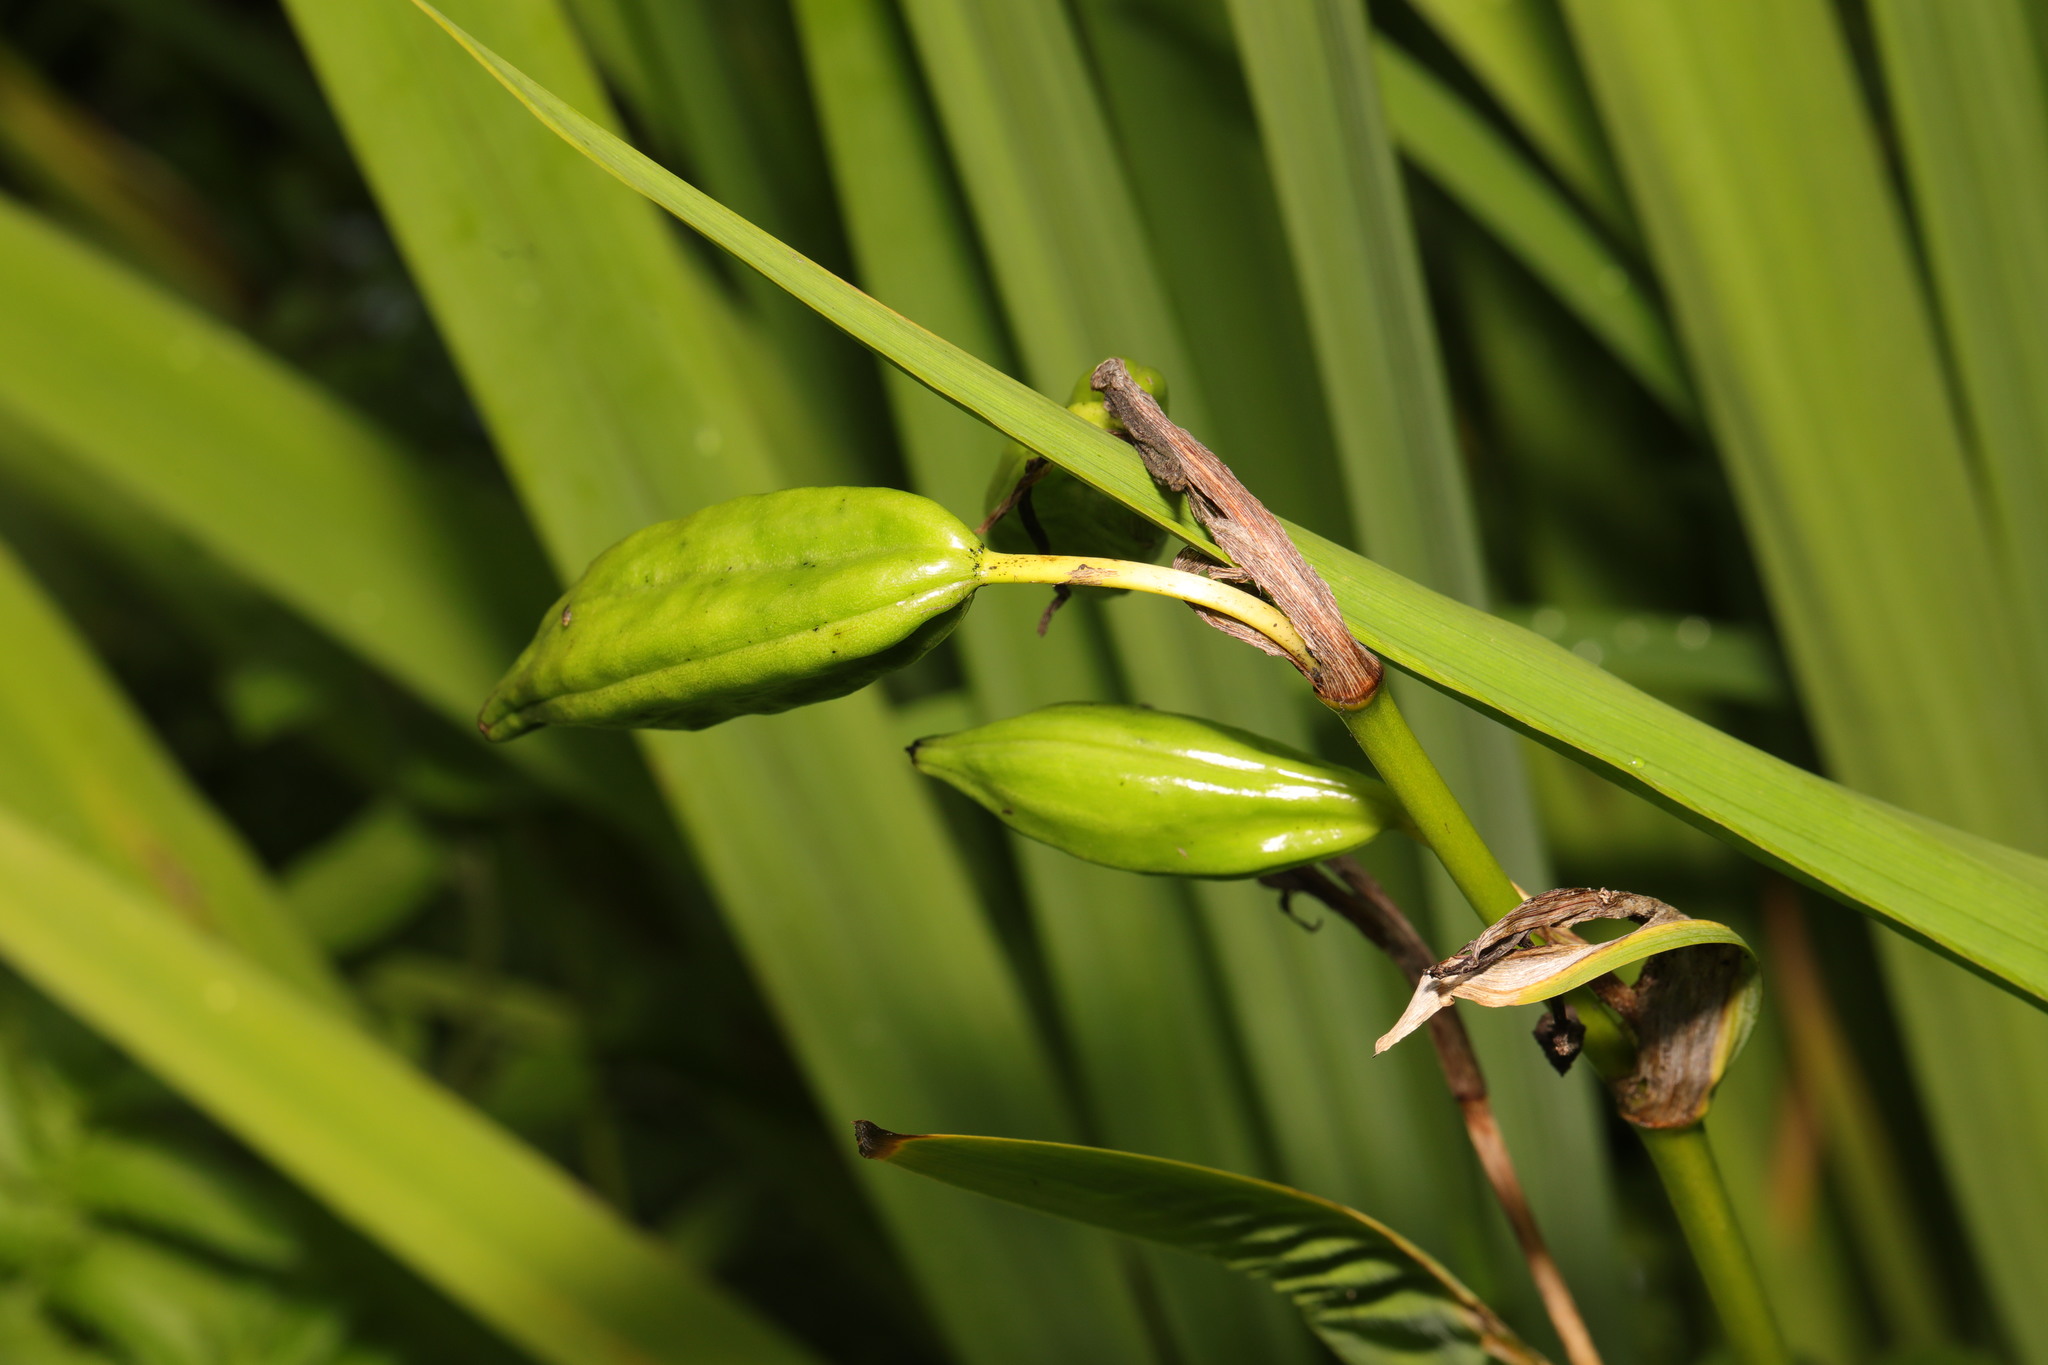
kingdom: Plantae
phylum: Tracheophyta
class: Liliopsida
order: Asparagales
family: Iridaceae
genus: Iris
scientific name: Iris pseudacorus
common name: Yellow flag
